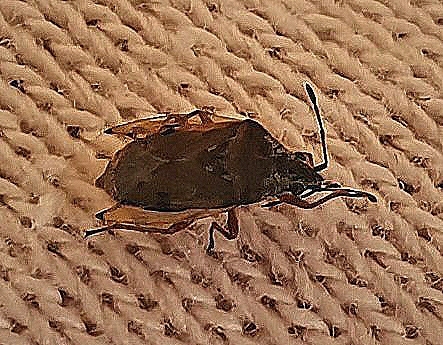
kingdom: Animalia
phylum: Arthropoda
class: Insecta
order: Hemiptera
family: Lygaeidae
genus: Kleidocerys
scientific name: Kleidocerys resedae
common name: Birch catkin bug
